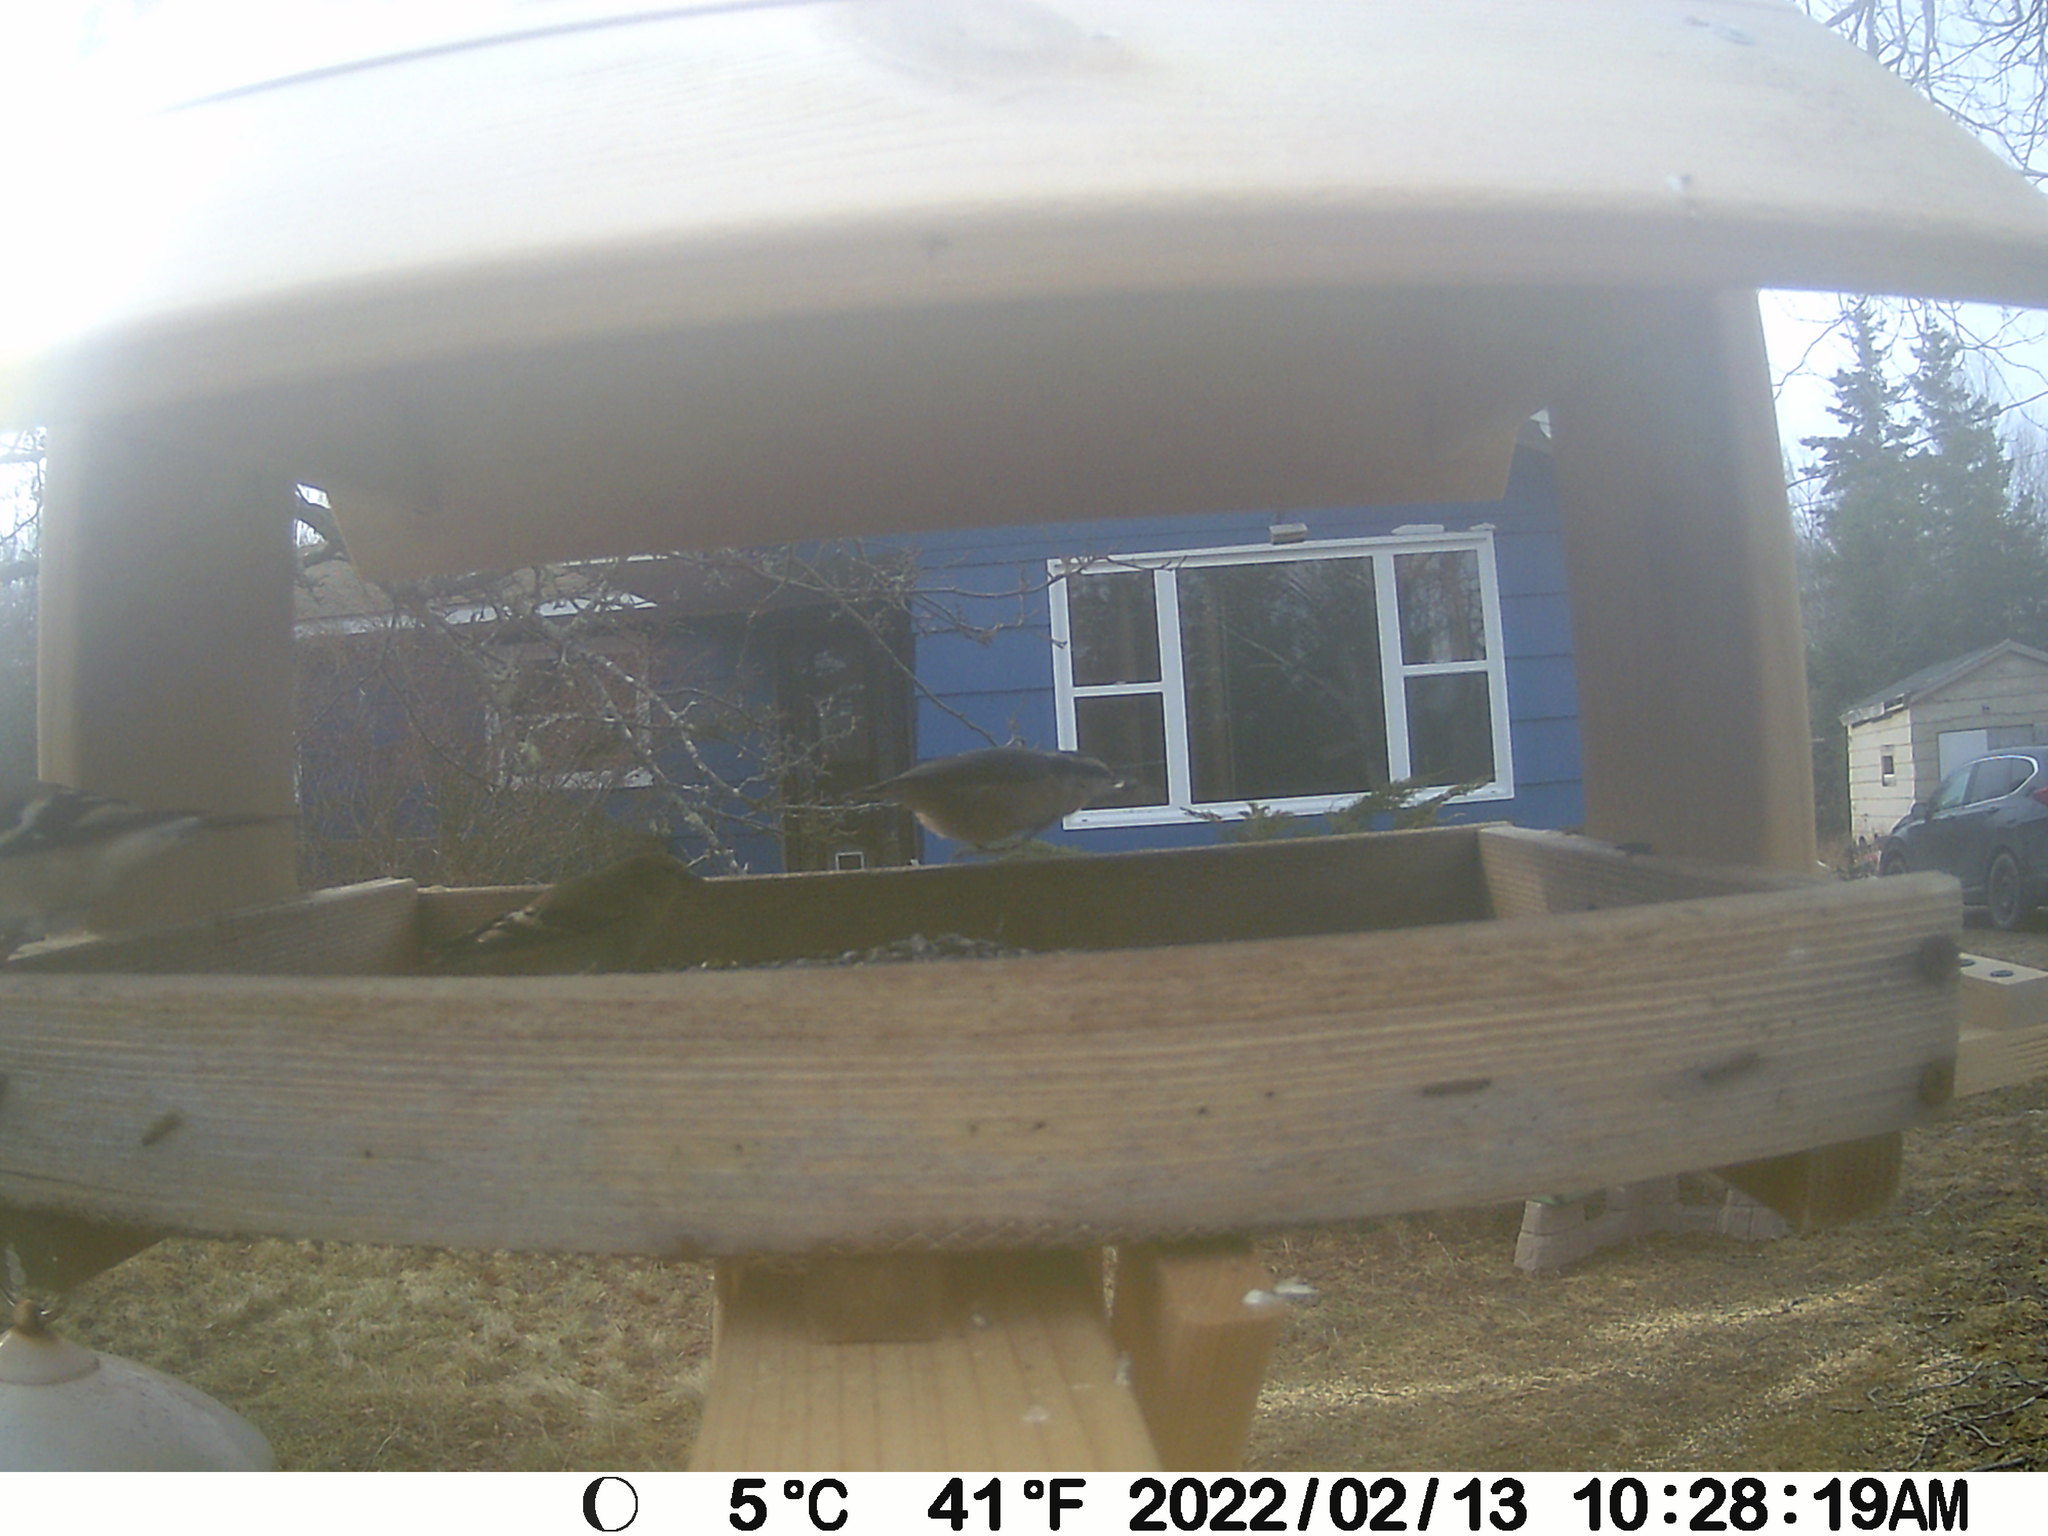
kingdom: Animalia
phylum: Chordata
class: Aves
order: Passeriformes
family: Sittidae
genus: Sitta
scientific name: Sitta canadensis
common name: Red-breasted nuthatch
